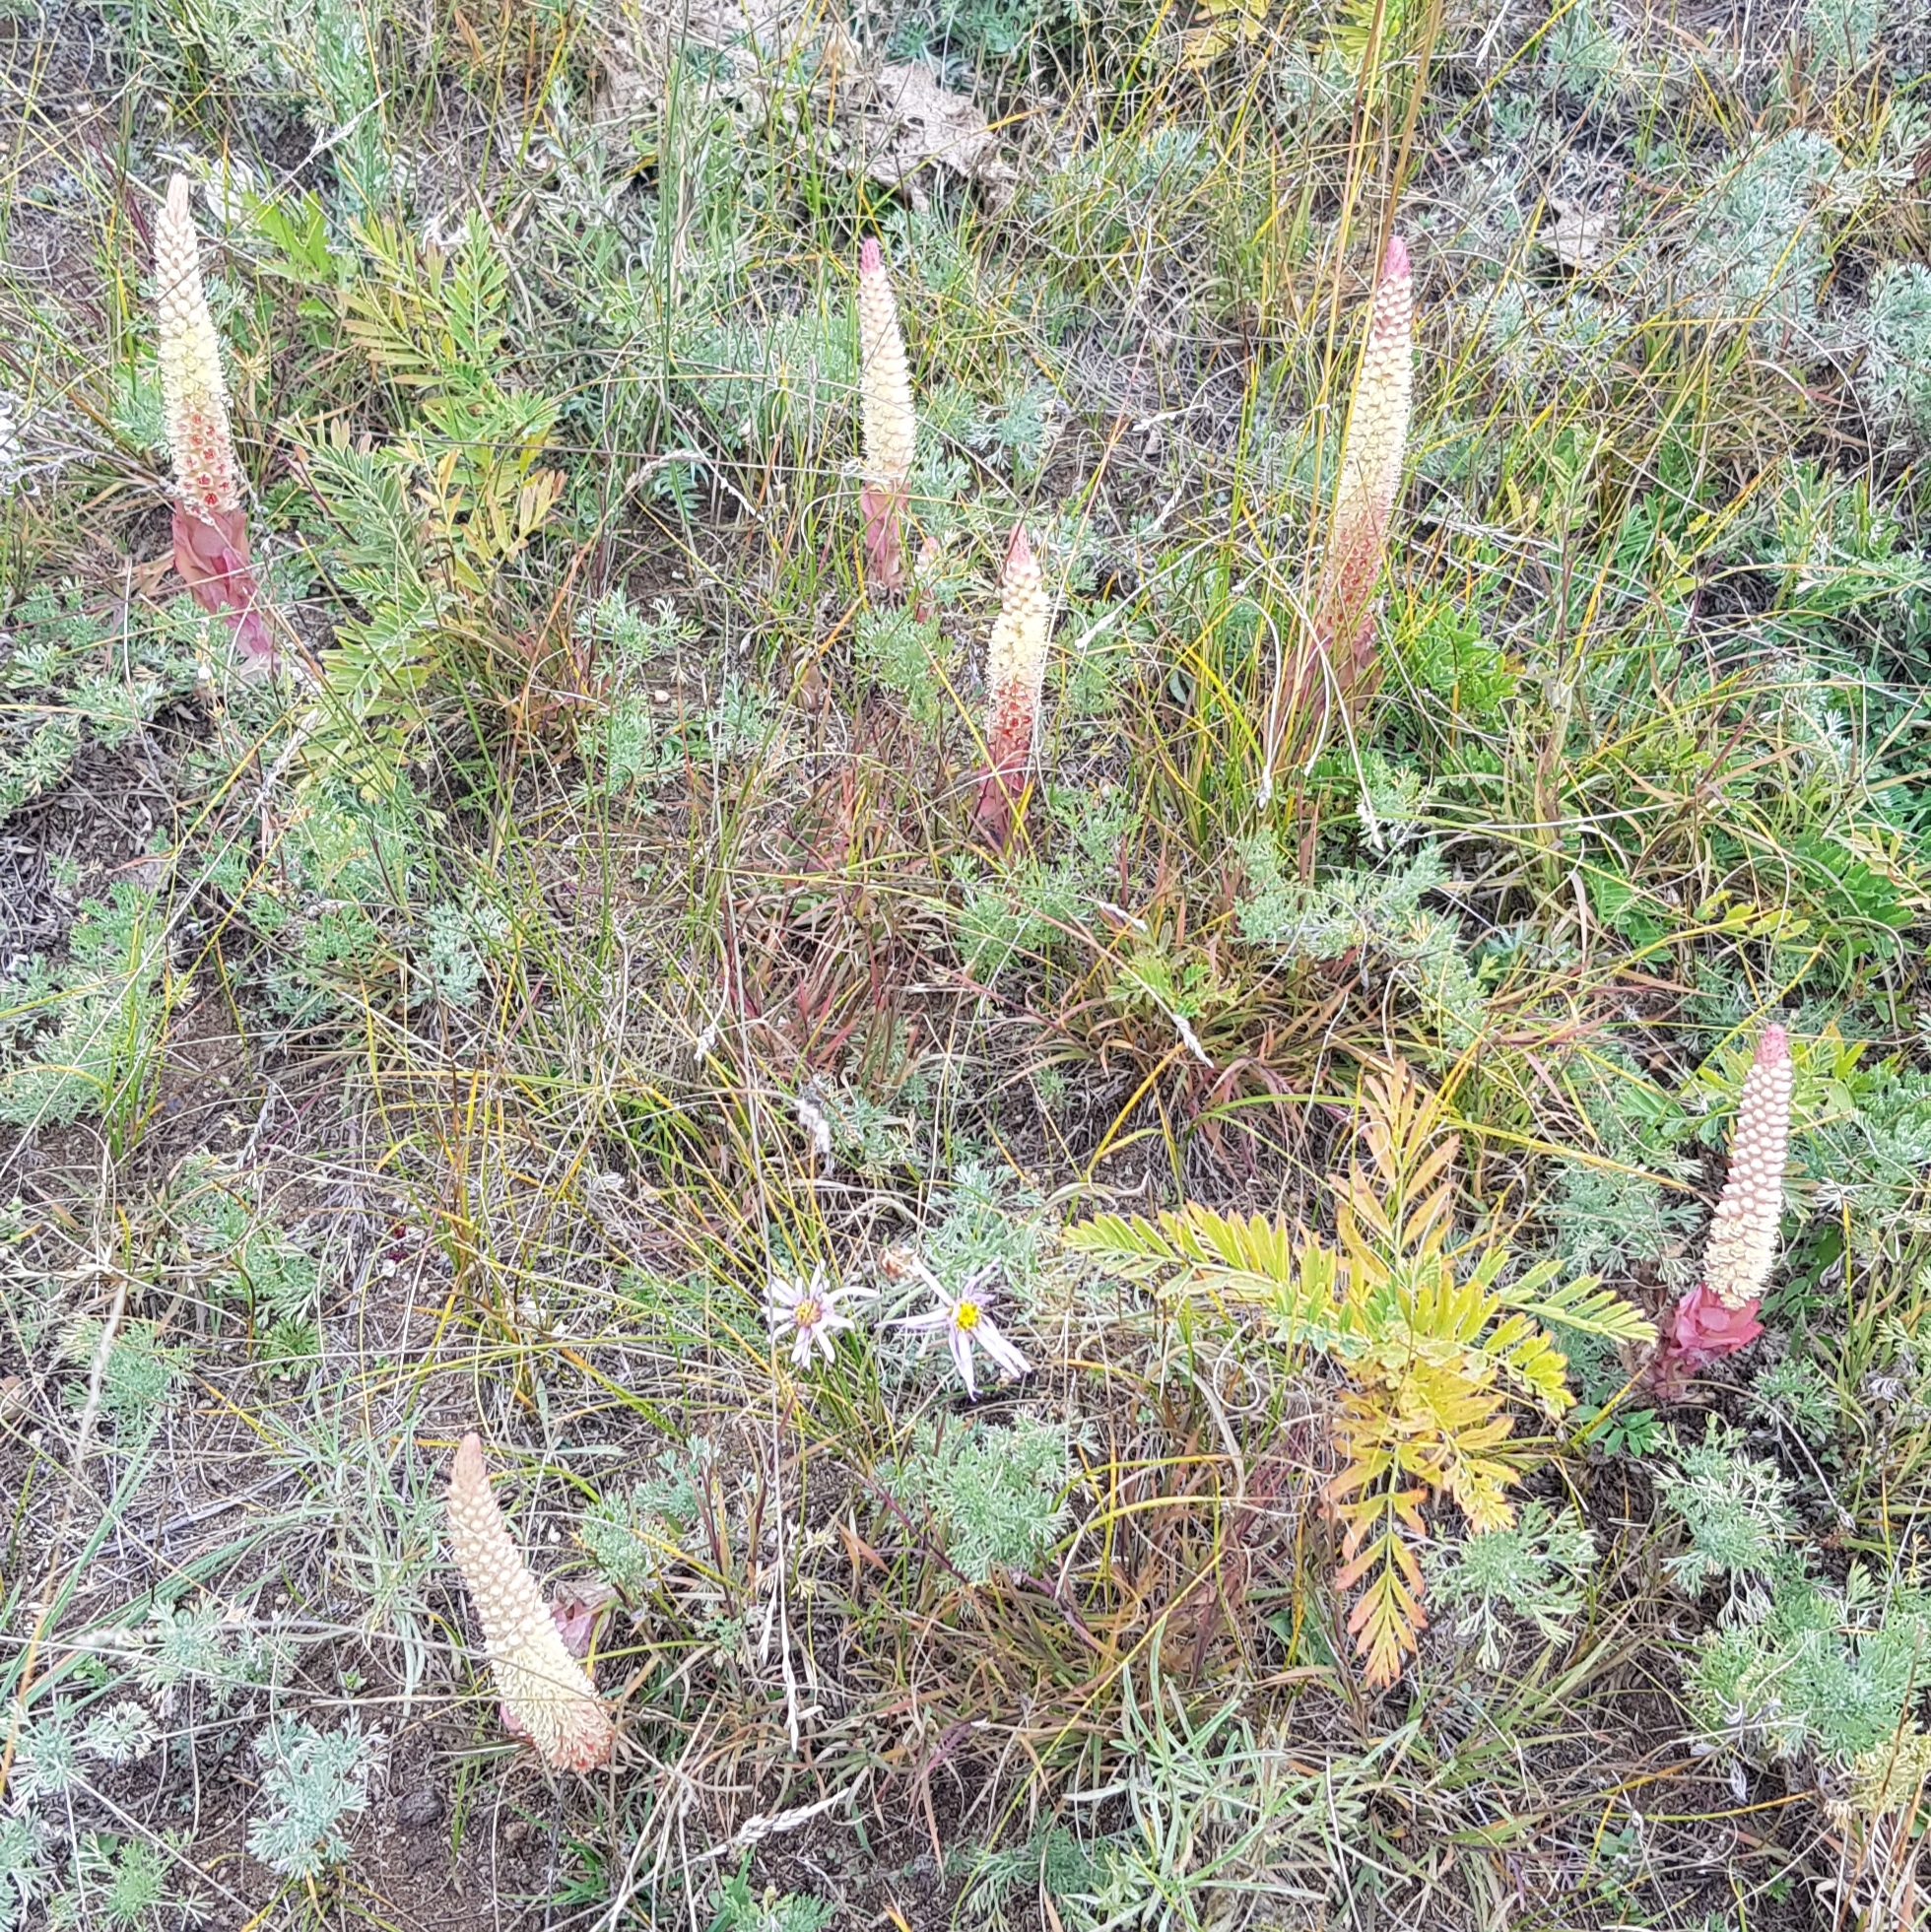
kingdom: Plantae
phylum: Tracheophyta
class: Magnoliopsida
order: Saxifragales
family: Crassulaceae
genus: Orostachys
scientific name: Orostachys malacophylla
